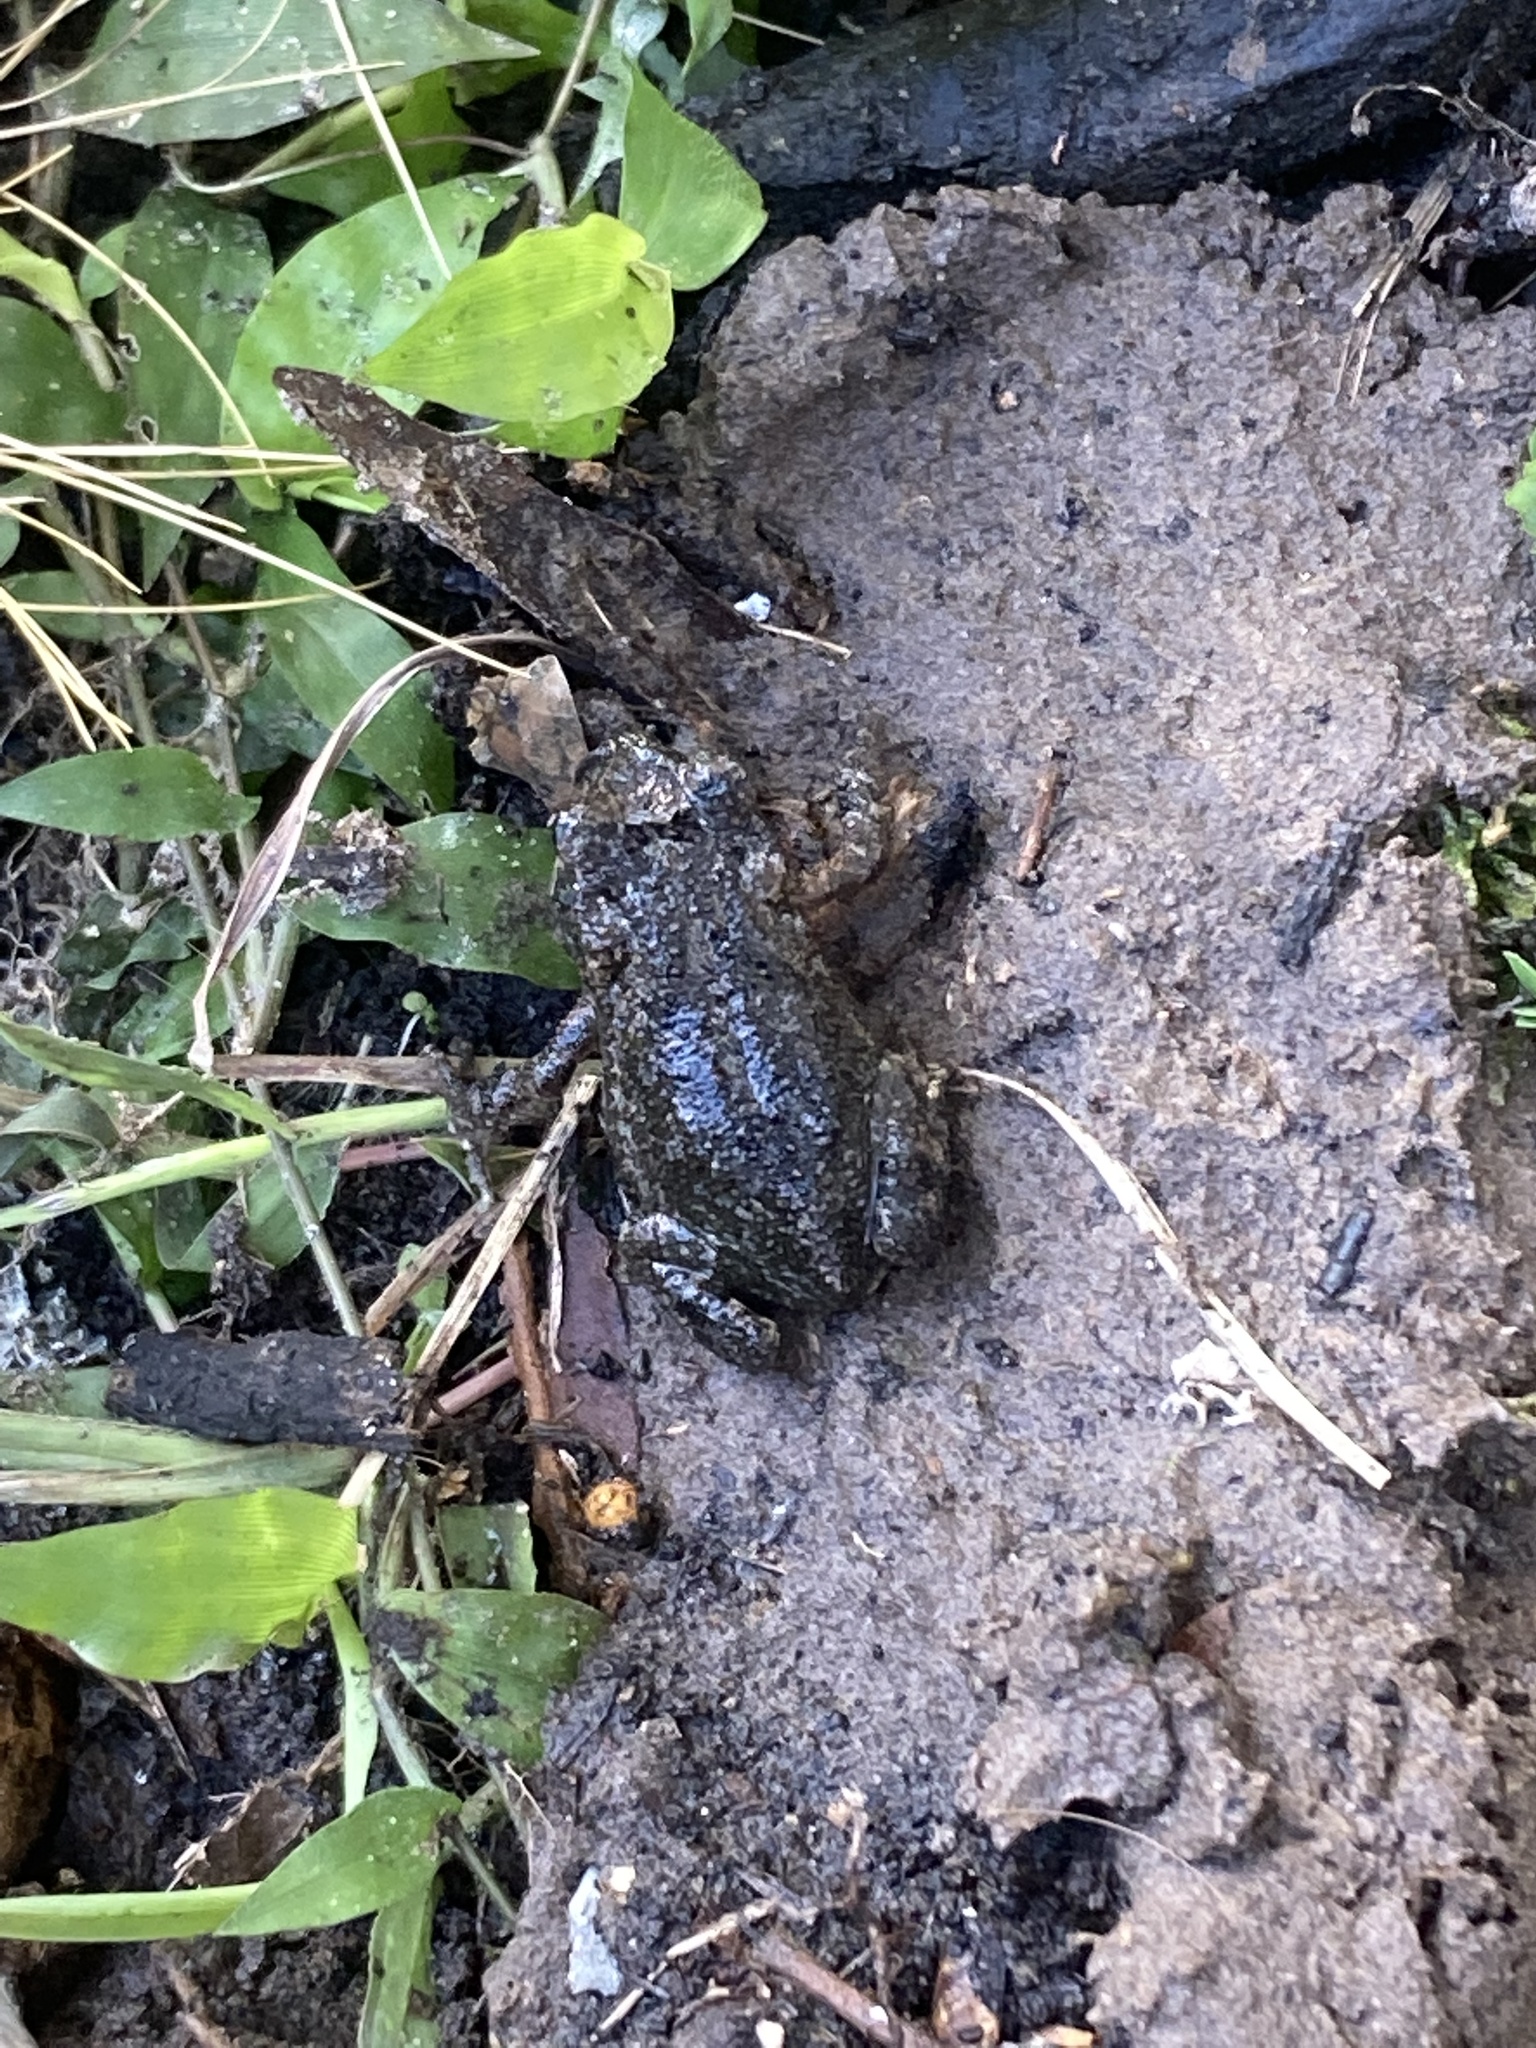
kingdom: Animalia
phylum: Chordata
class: Amphibia
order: Anura
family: Bufonidae
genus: Incilius
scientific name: Incilius nebulifer
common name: Gulf coast toad
